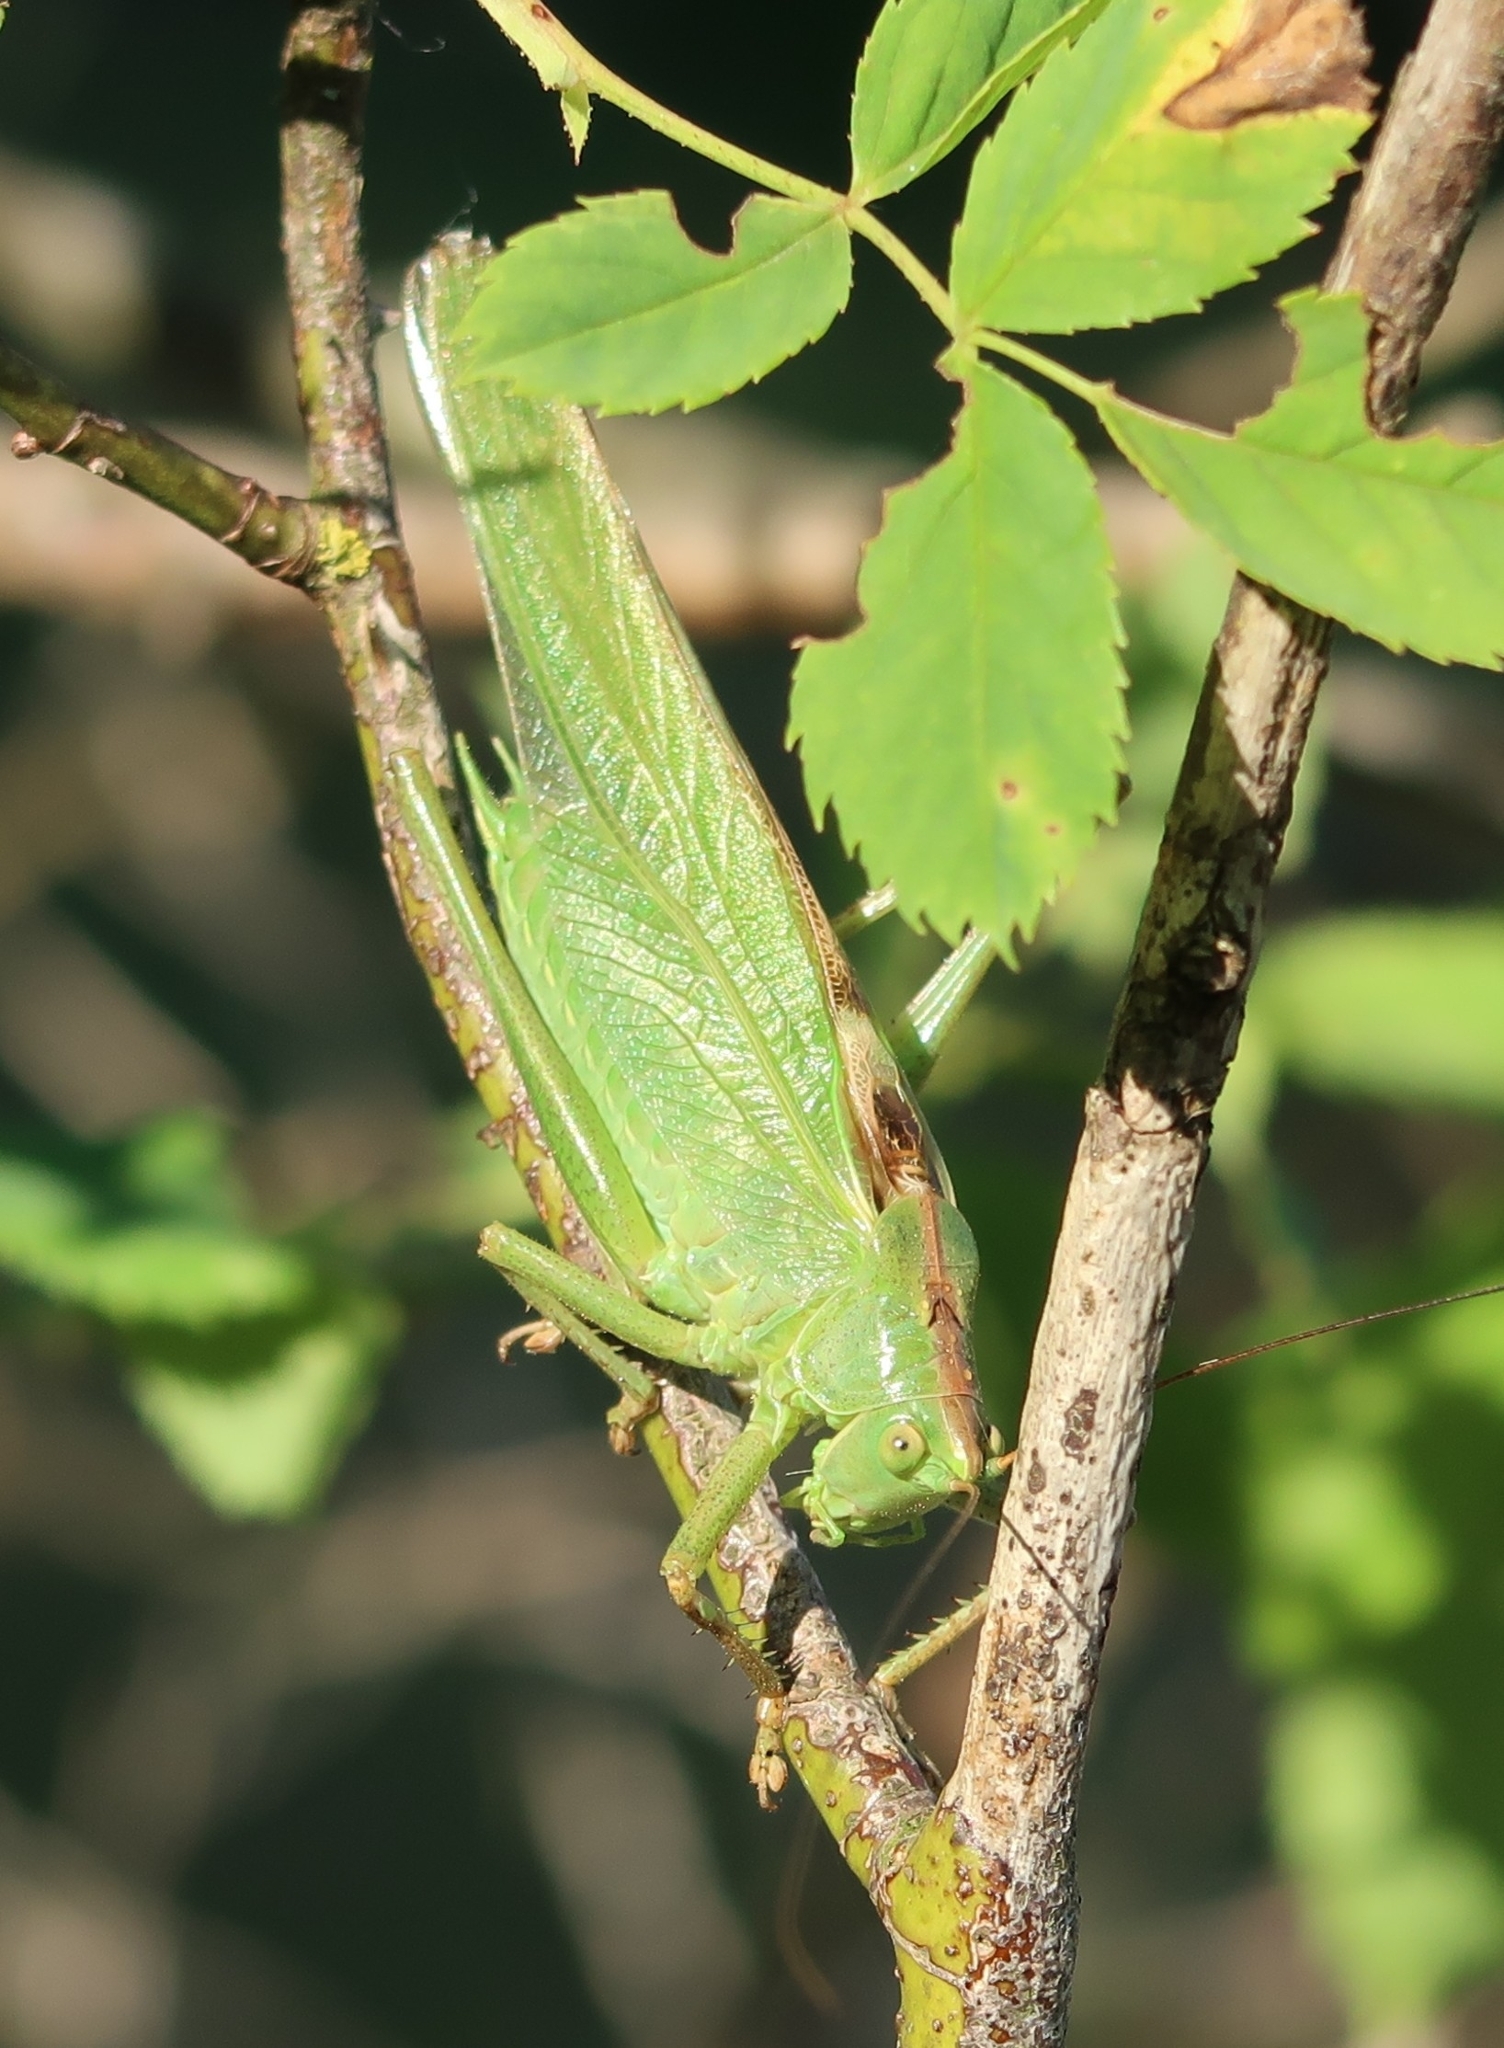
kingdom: Animalia
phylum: Arthropoda
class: Insecta
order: Orthoptera
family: Tettigoniidae
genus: Tettigonia
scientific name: Tettigonia viridissima
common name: Great green bush-cricket
